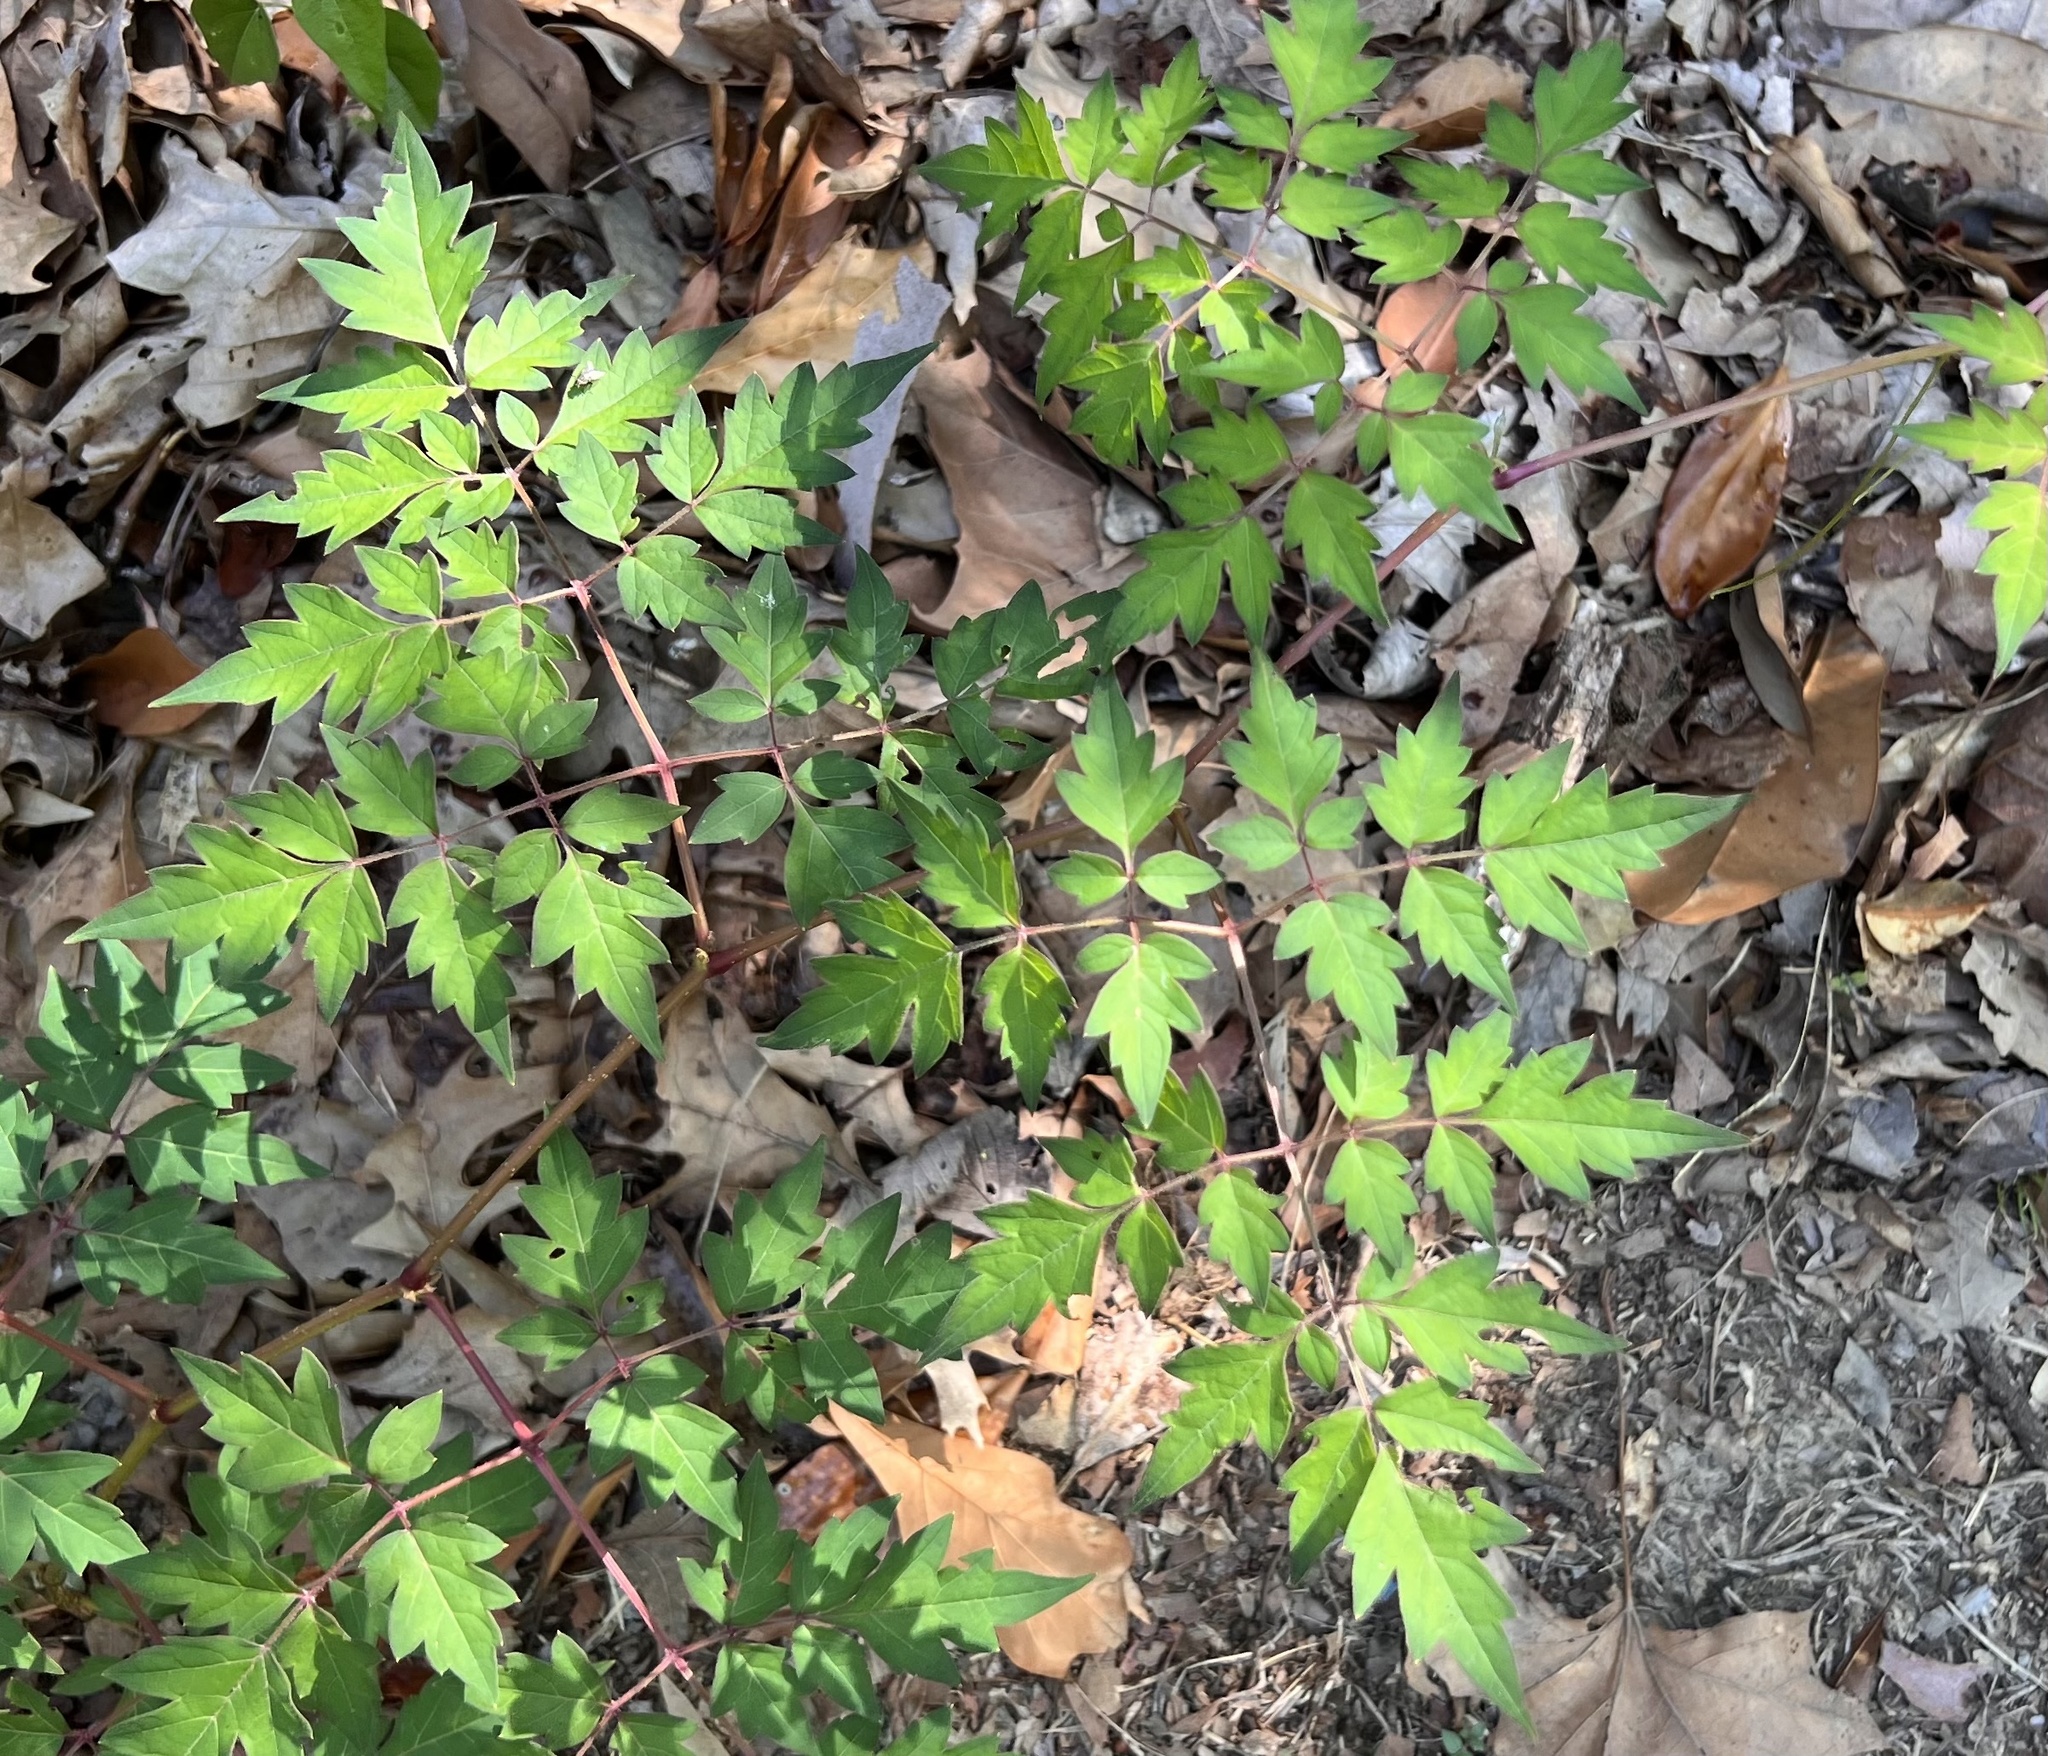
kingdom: Plantae
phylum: Tracheophyta
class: Magnoliopsida
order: Vitales
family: Vitaceae
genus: Nekemias
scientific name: Nekemias arborea
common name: Peppervine
